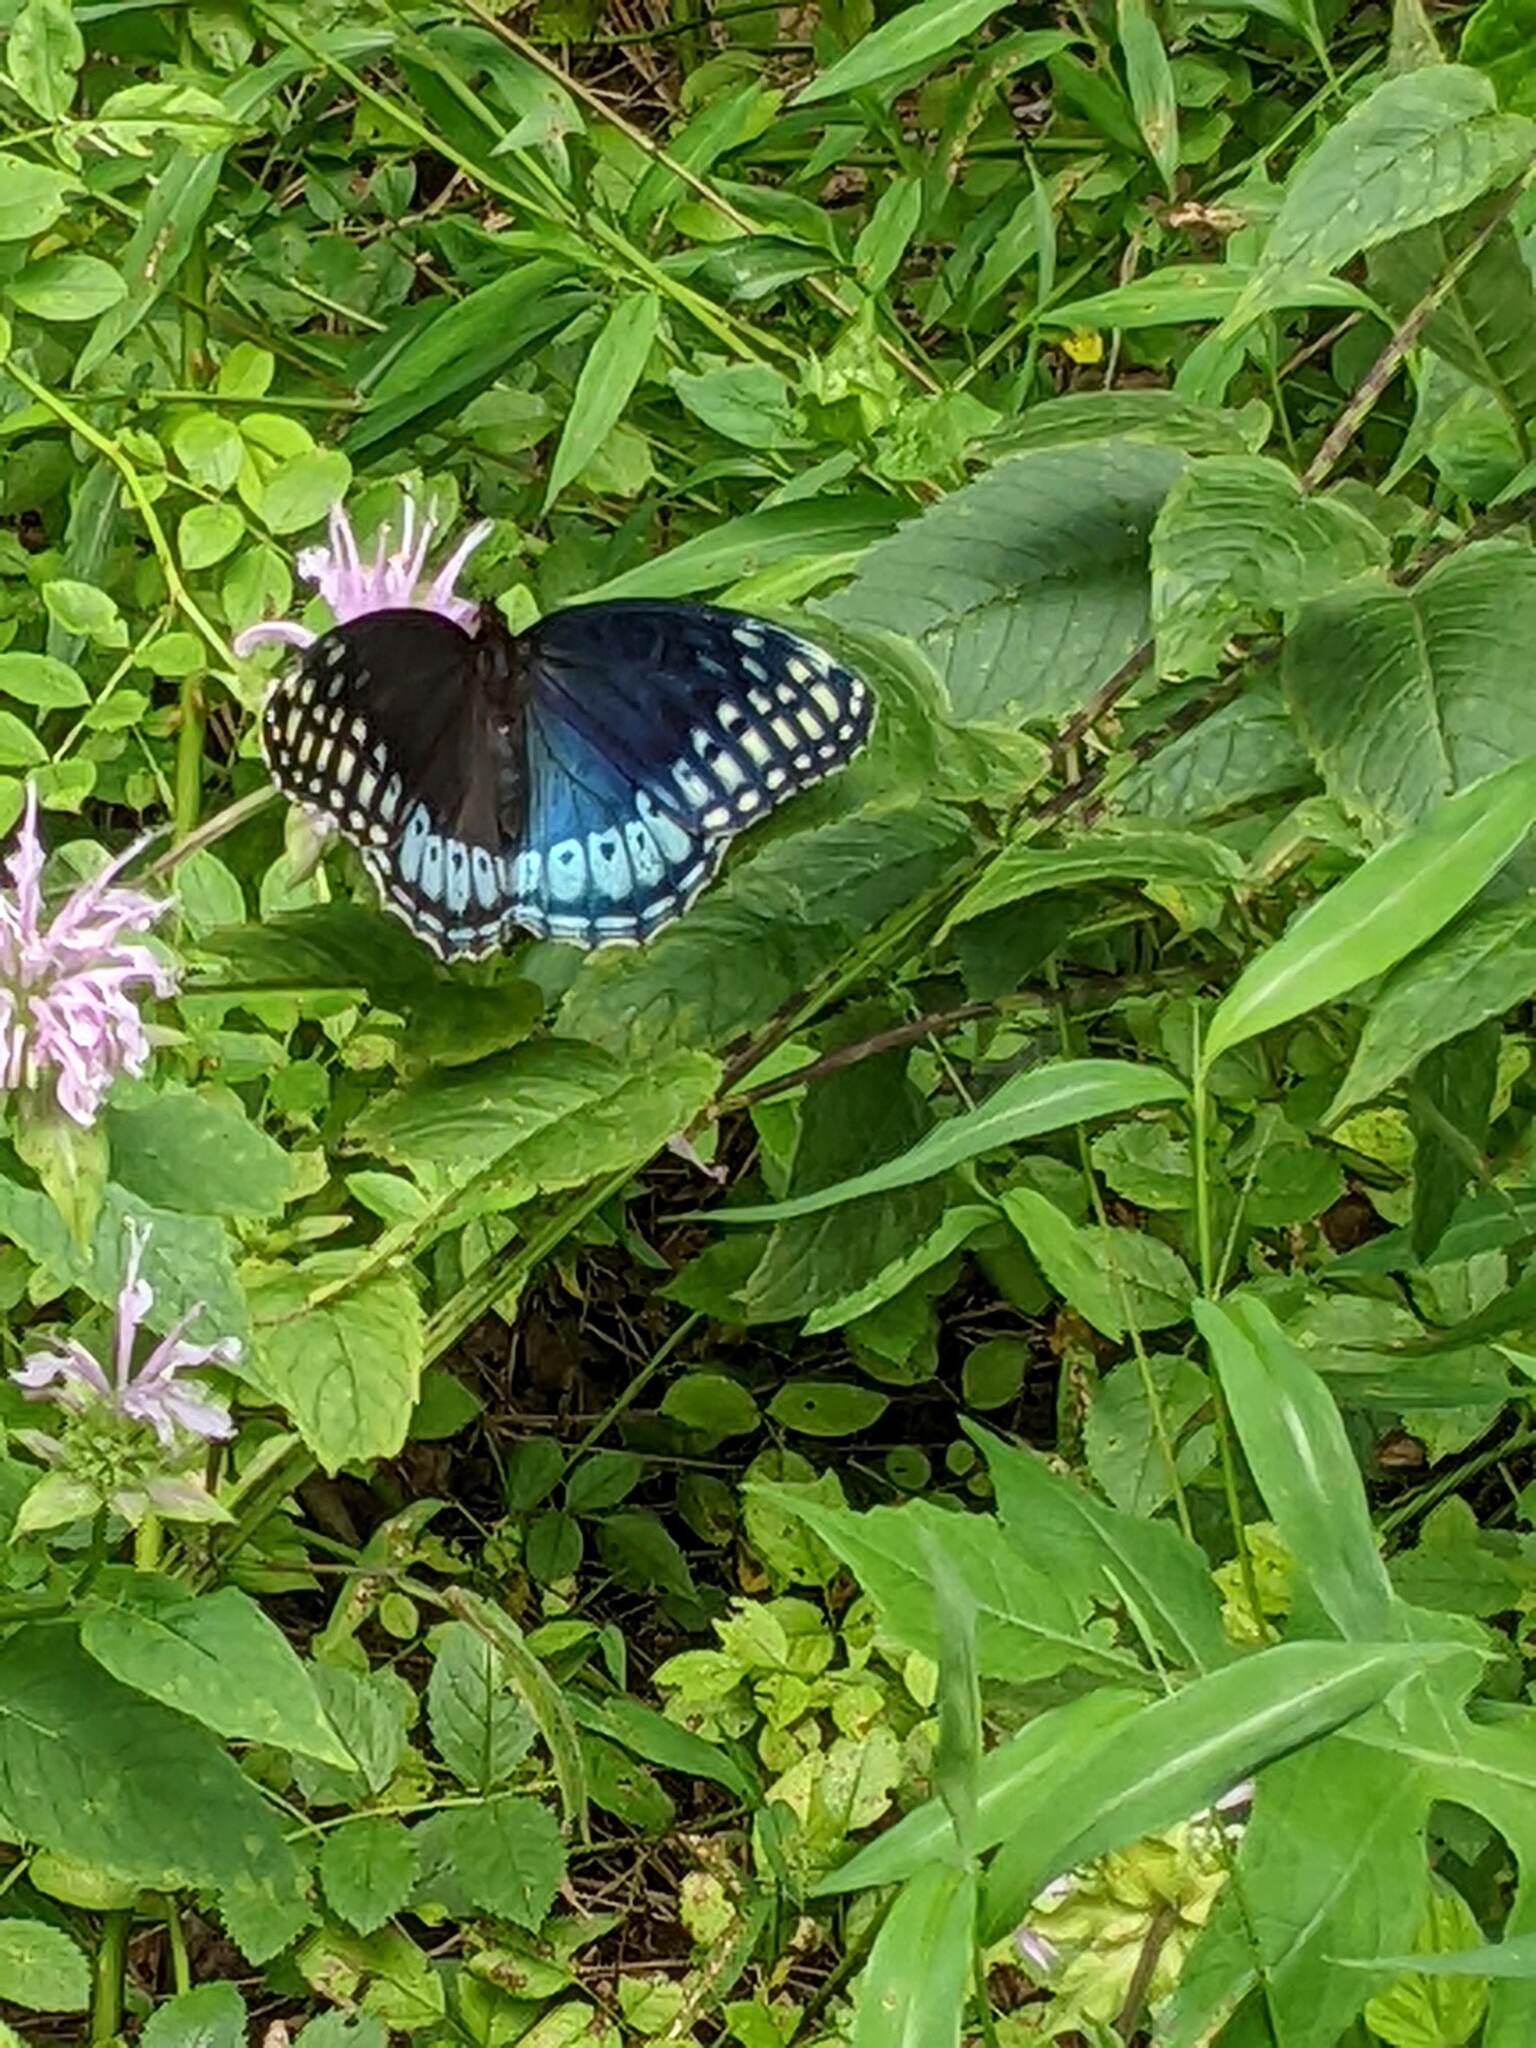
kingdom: Animalia
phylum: Arthropoda
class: Insecta
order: Lepidoptera
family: Nymphalidae
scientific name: Nymphalidae
